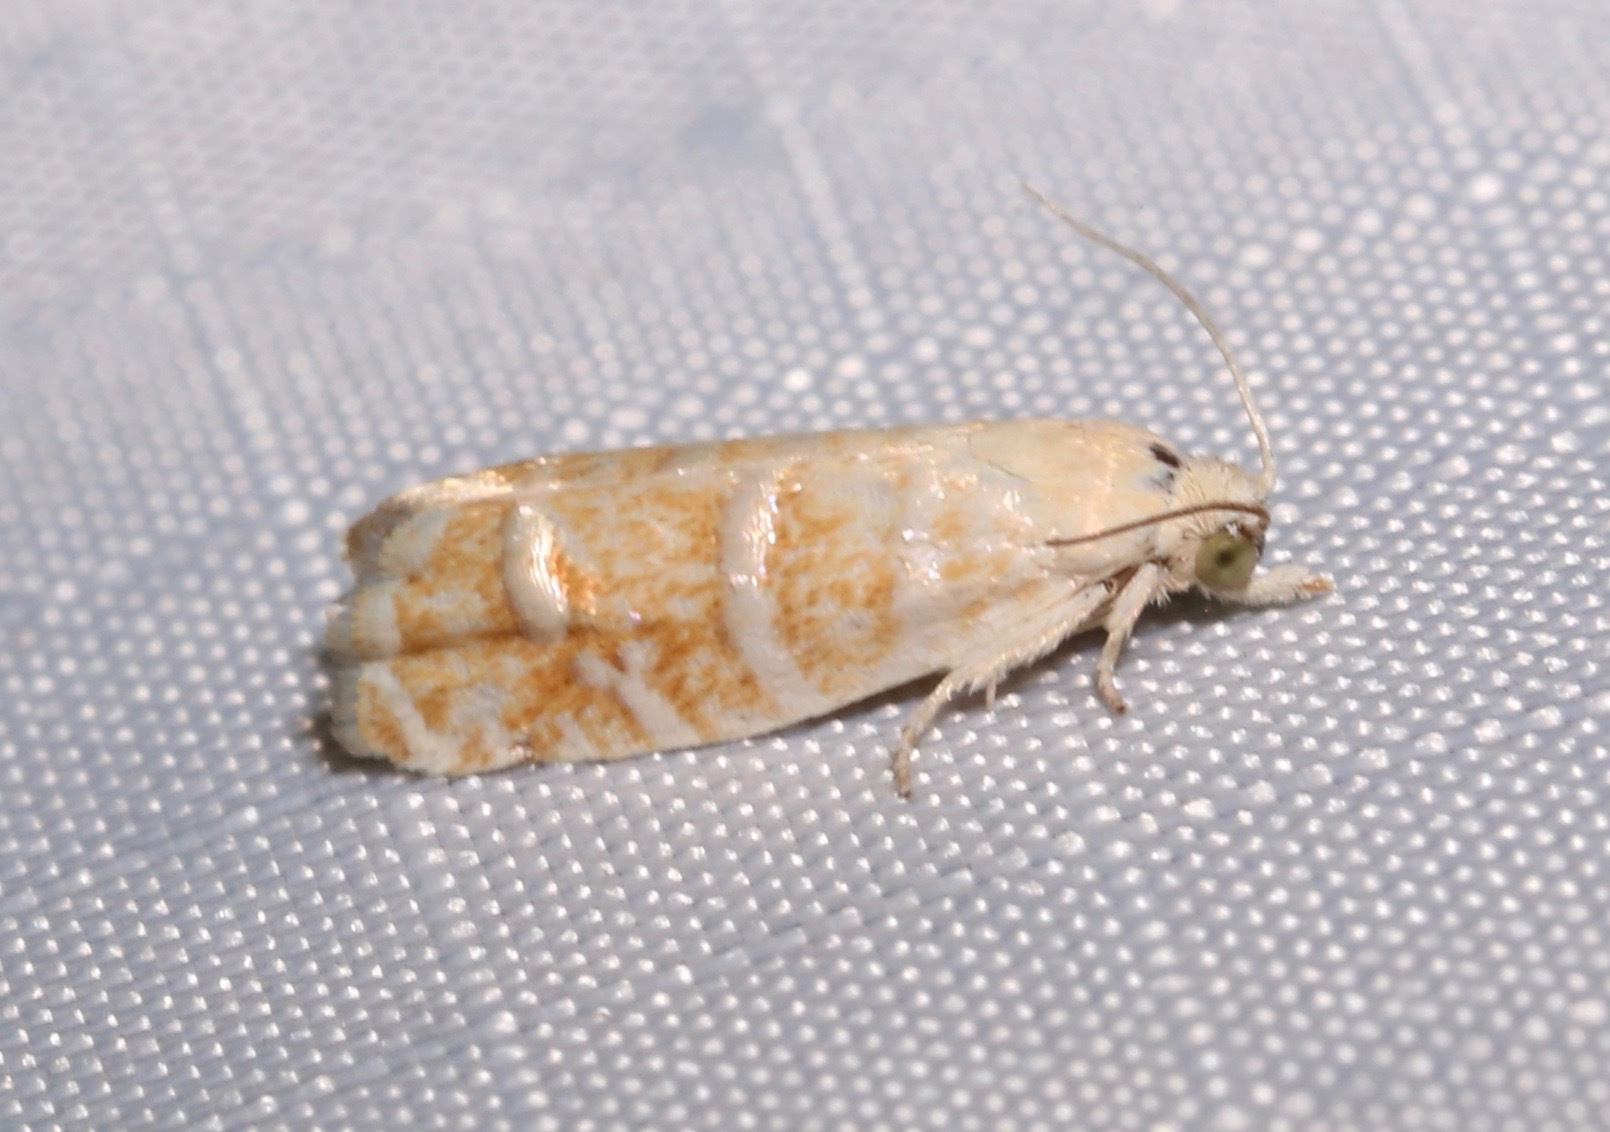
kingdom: Animalia
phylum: Arthropoda
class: Insecta
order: Lepidoptera
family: Tortricidae
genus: Cydia
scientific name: Cydia anaranjada
